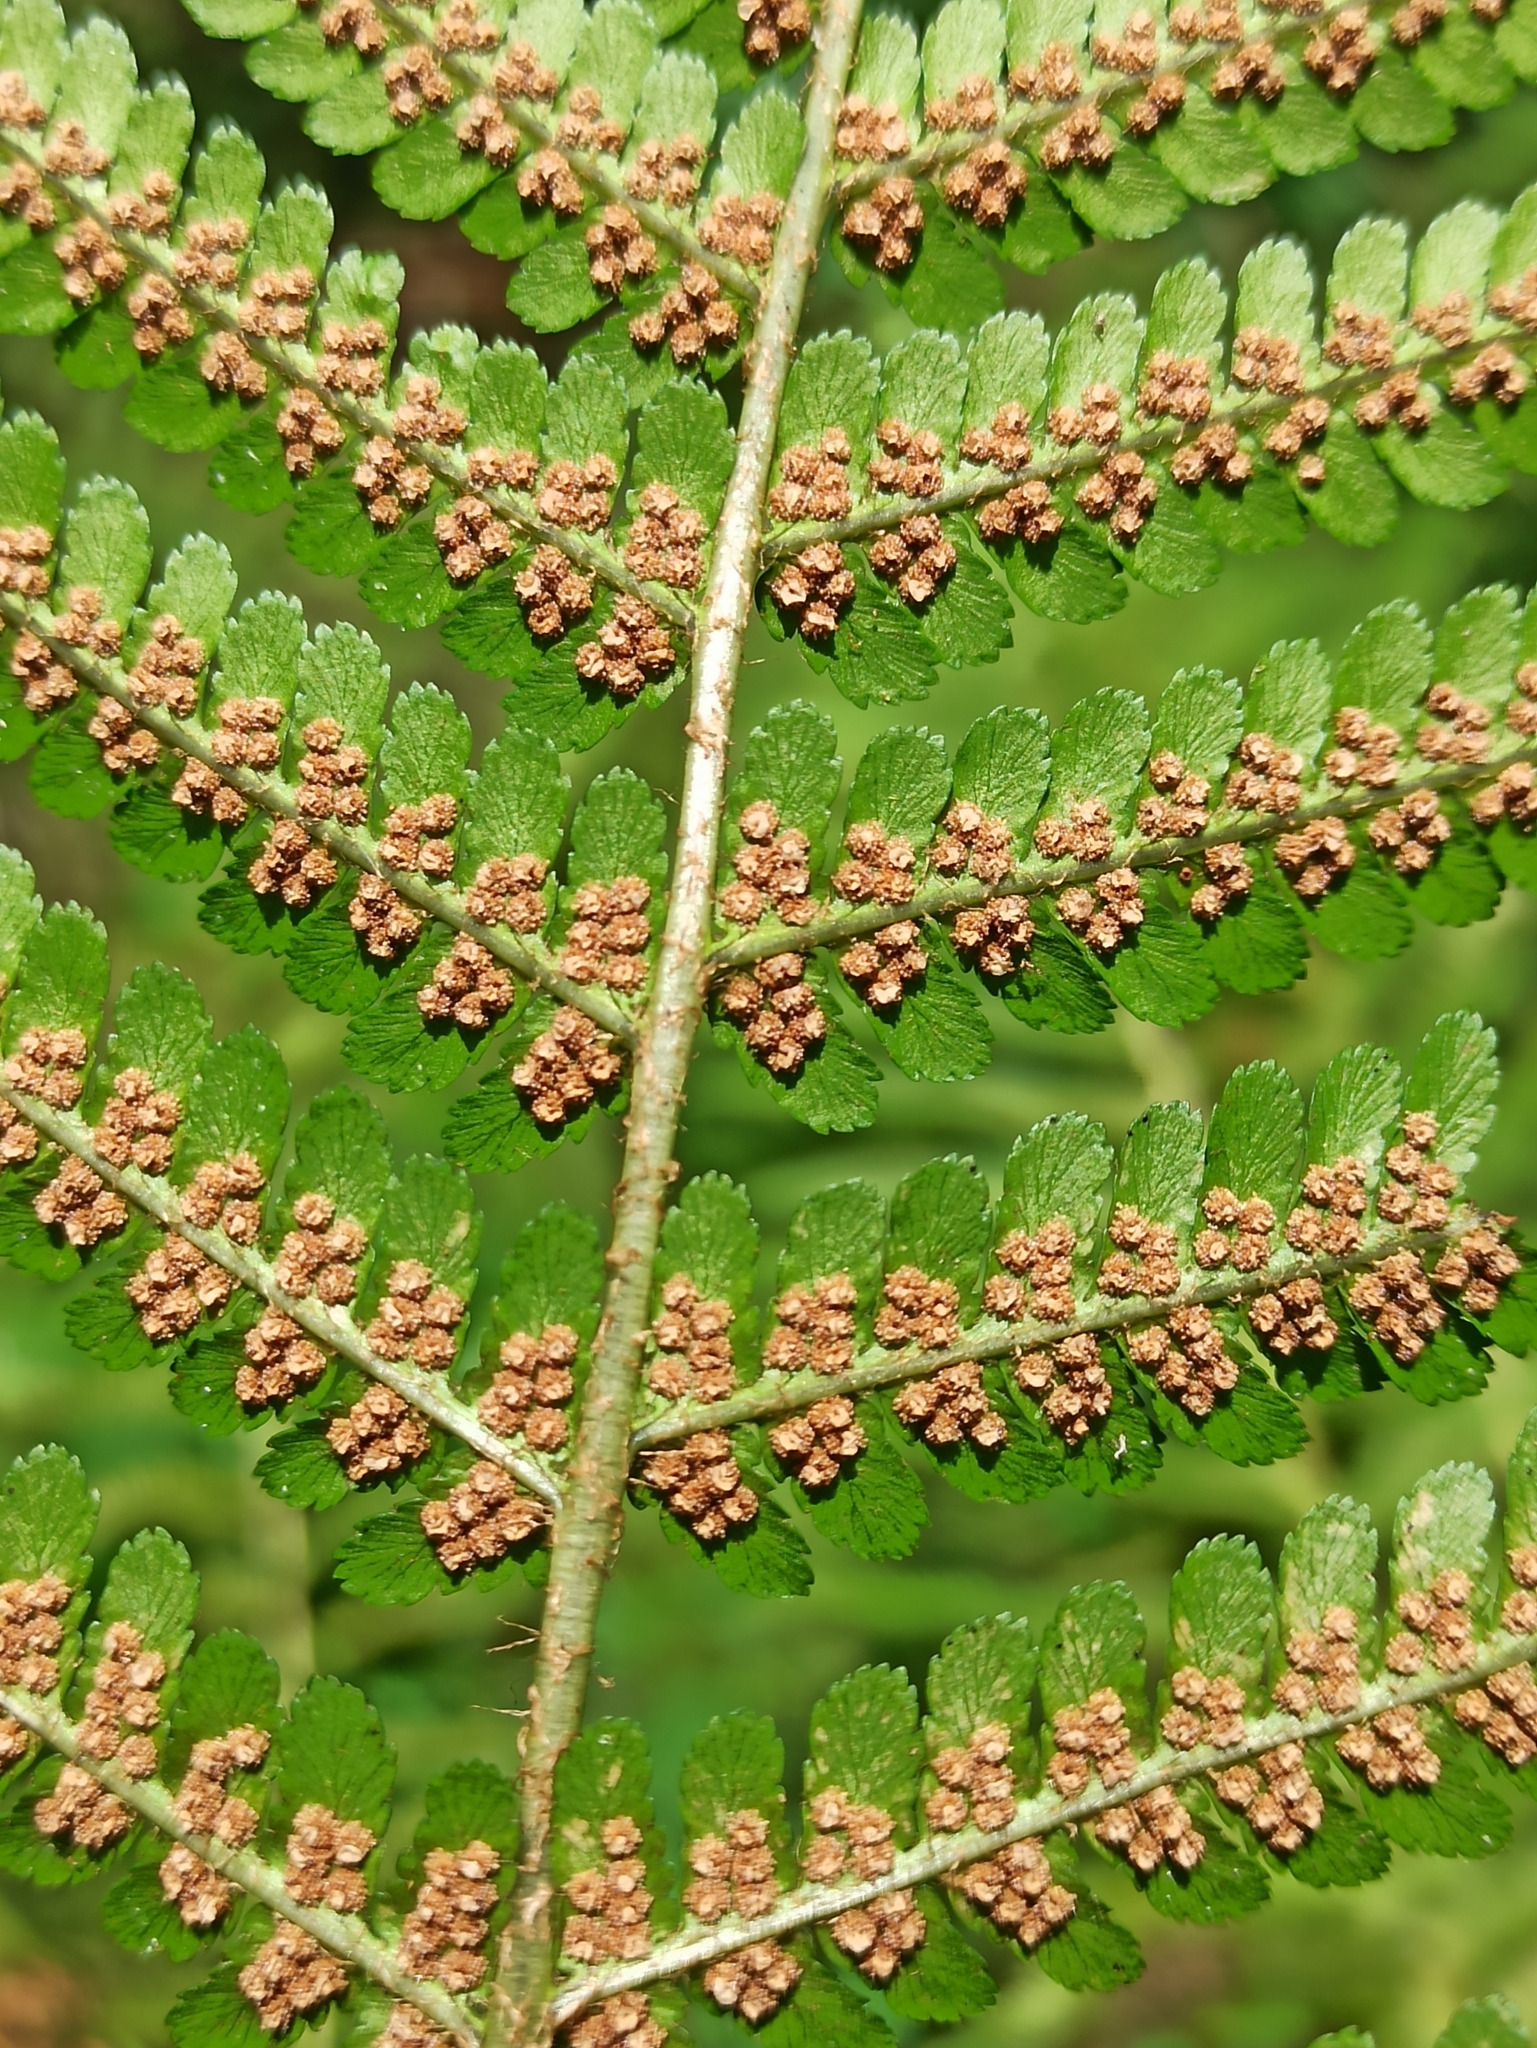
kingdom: Plantae
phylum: Tracheophyta
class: Polypodiopsida
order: Polypodiales
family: Dryopteridaceae
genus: Dryopteris
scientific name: Dryopteris filix-mas
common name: Male fern
